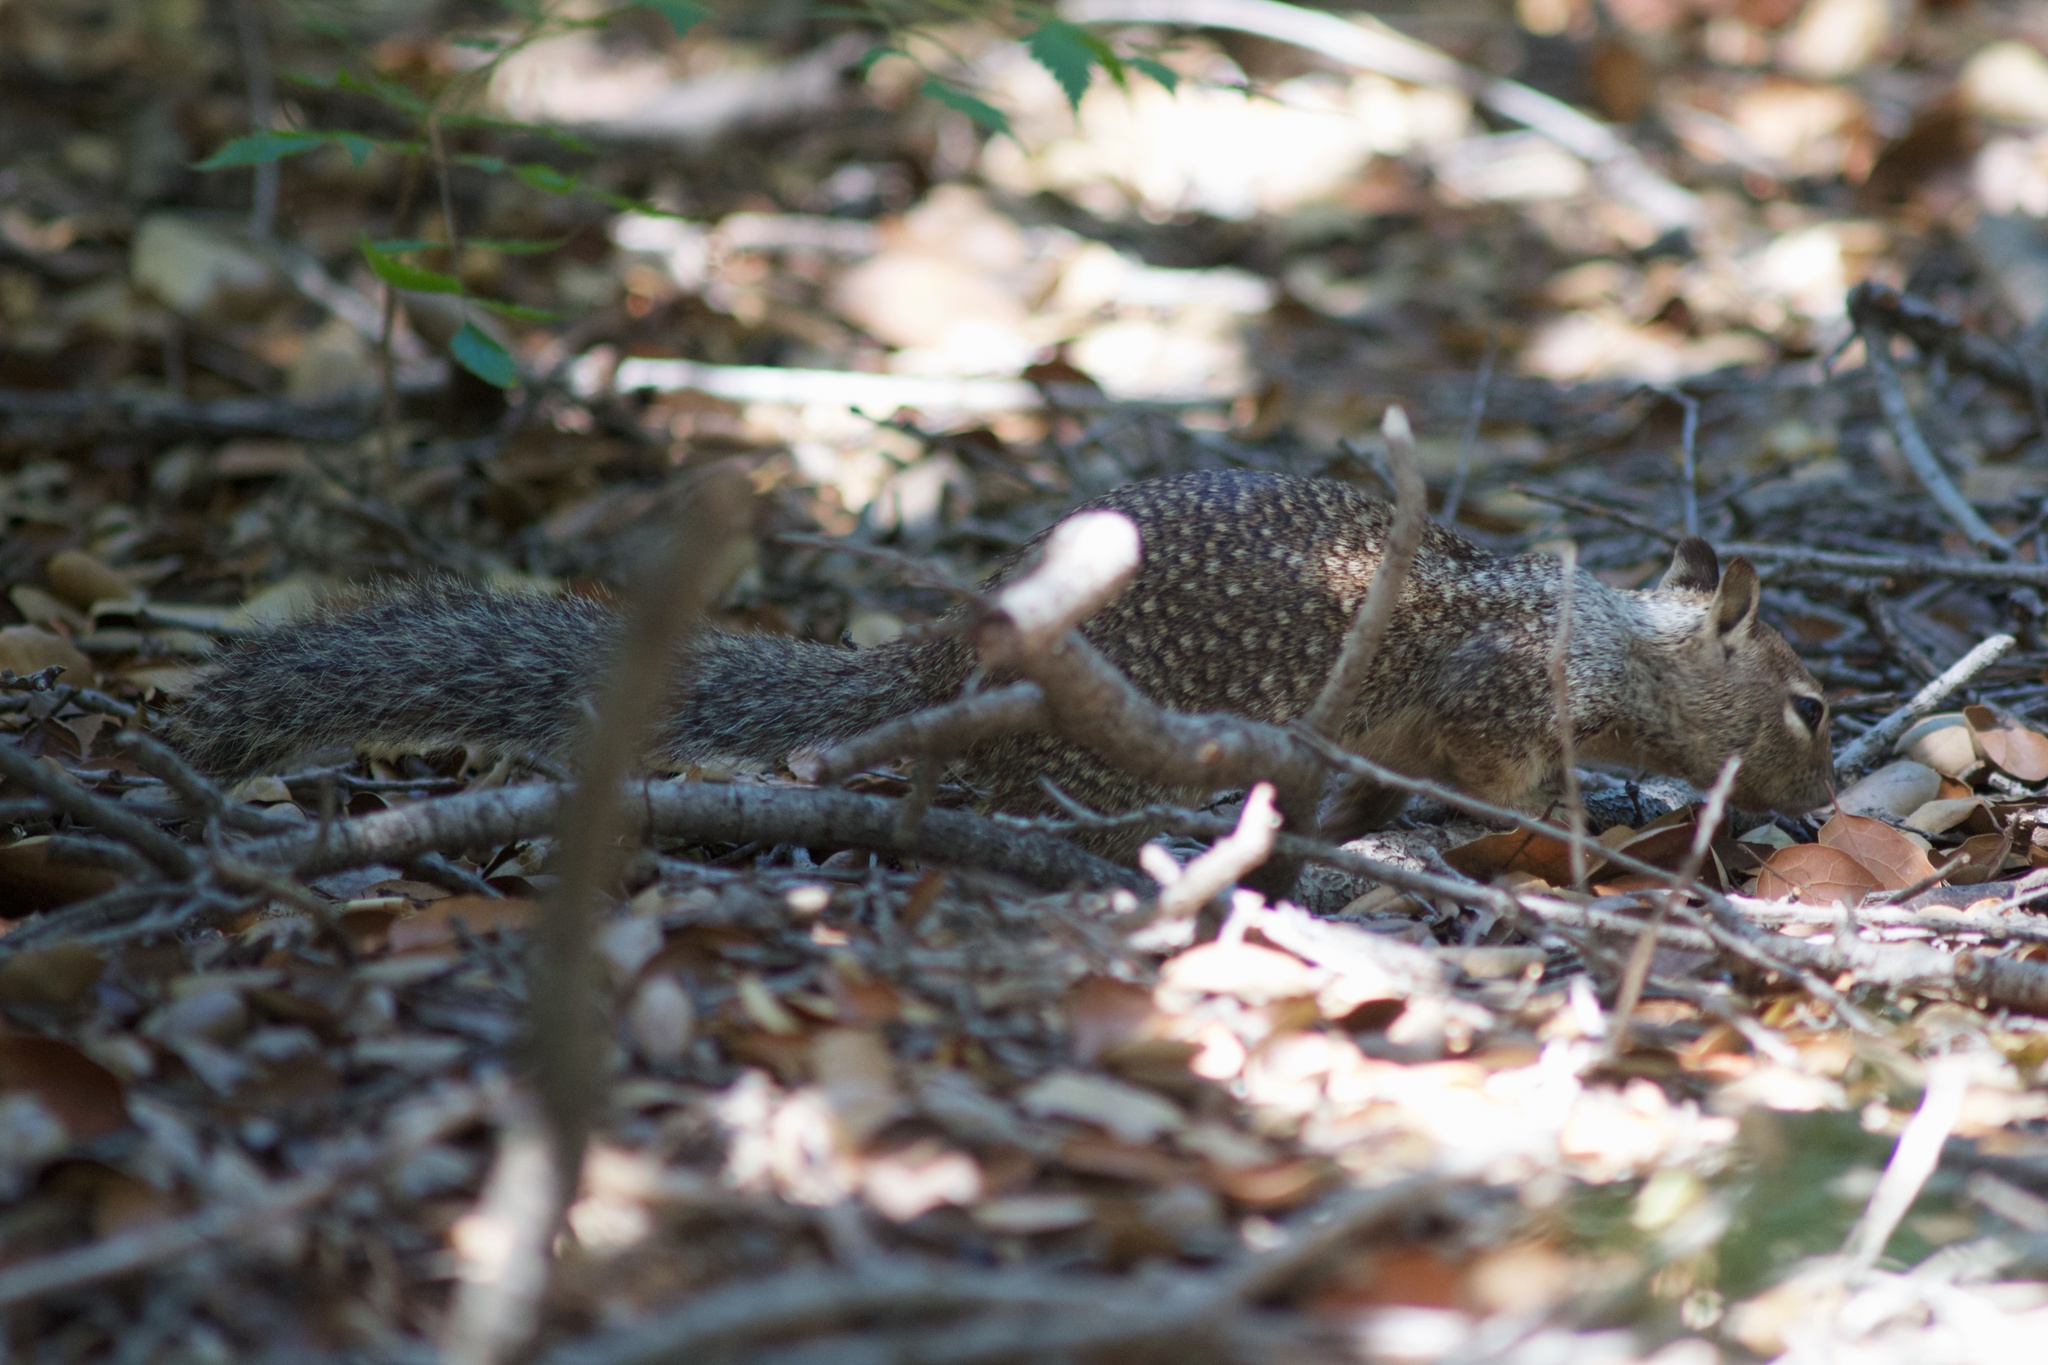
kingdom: Animalia
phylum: Chordata
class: Mammalia
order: Rodentia
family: Sciuridae
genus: Otospermophilus
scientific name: Otospermophilus beecheyi
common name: California ground squirrel
